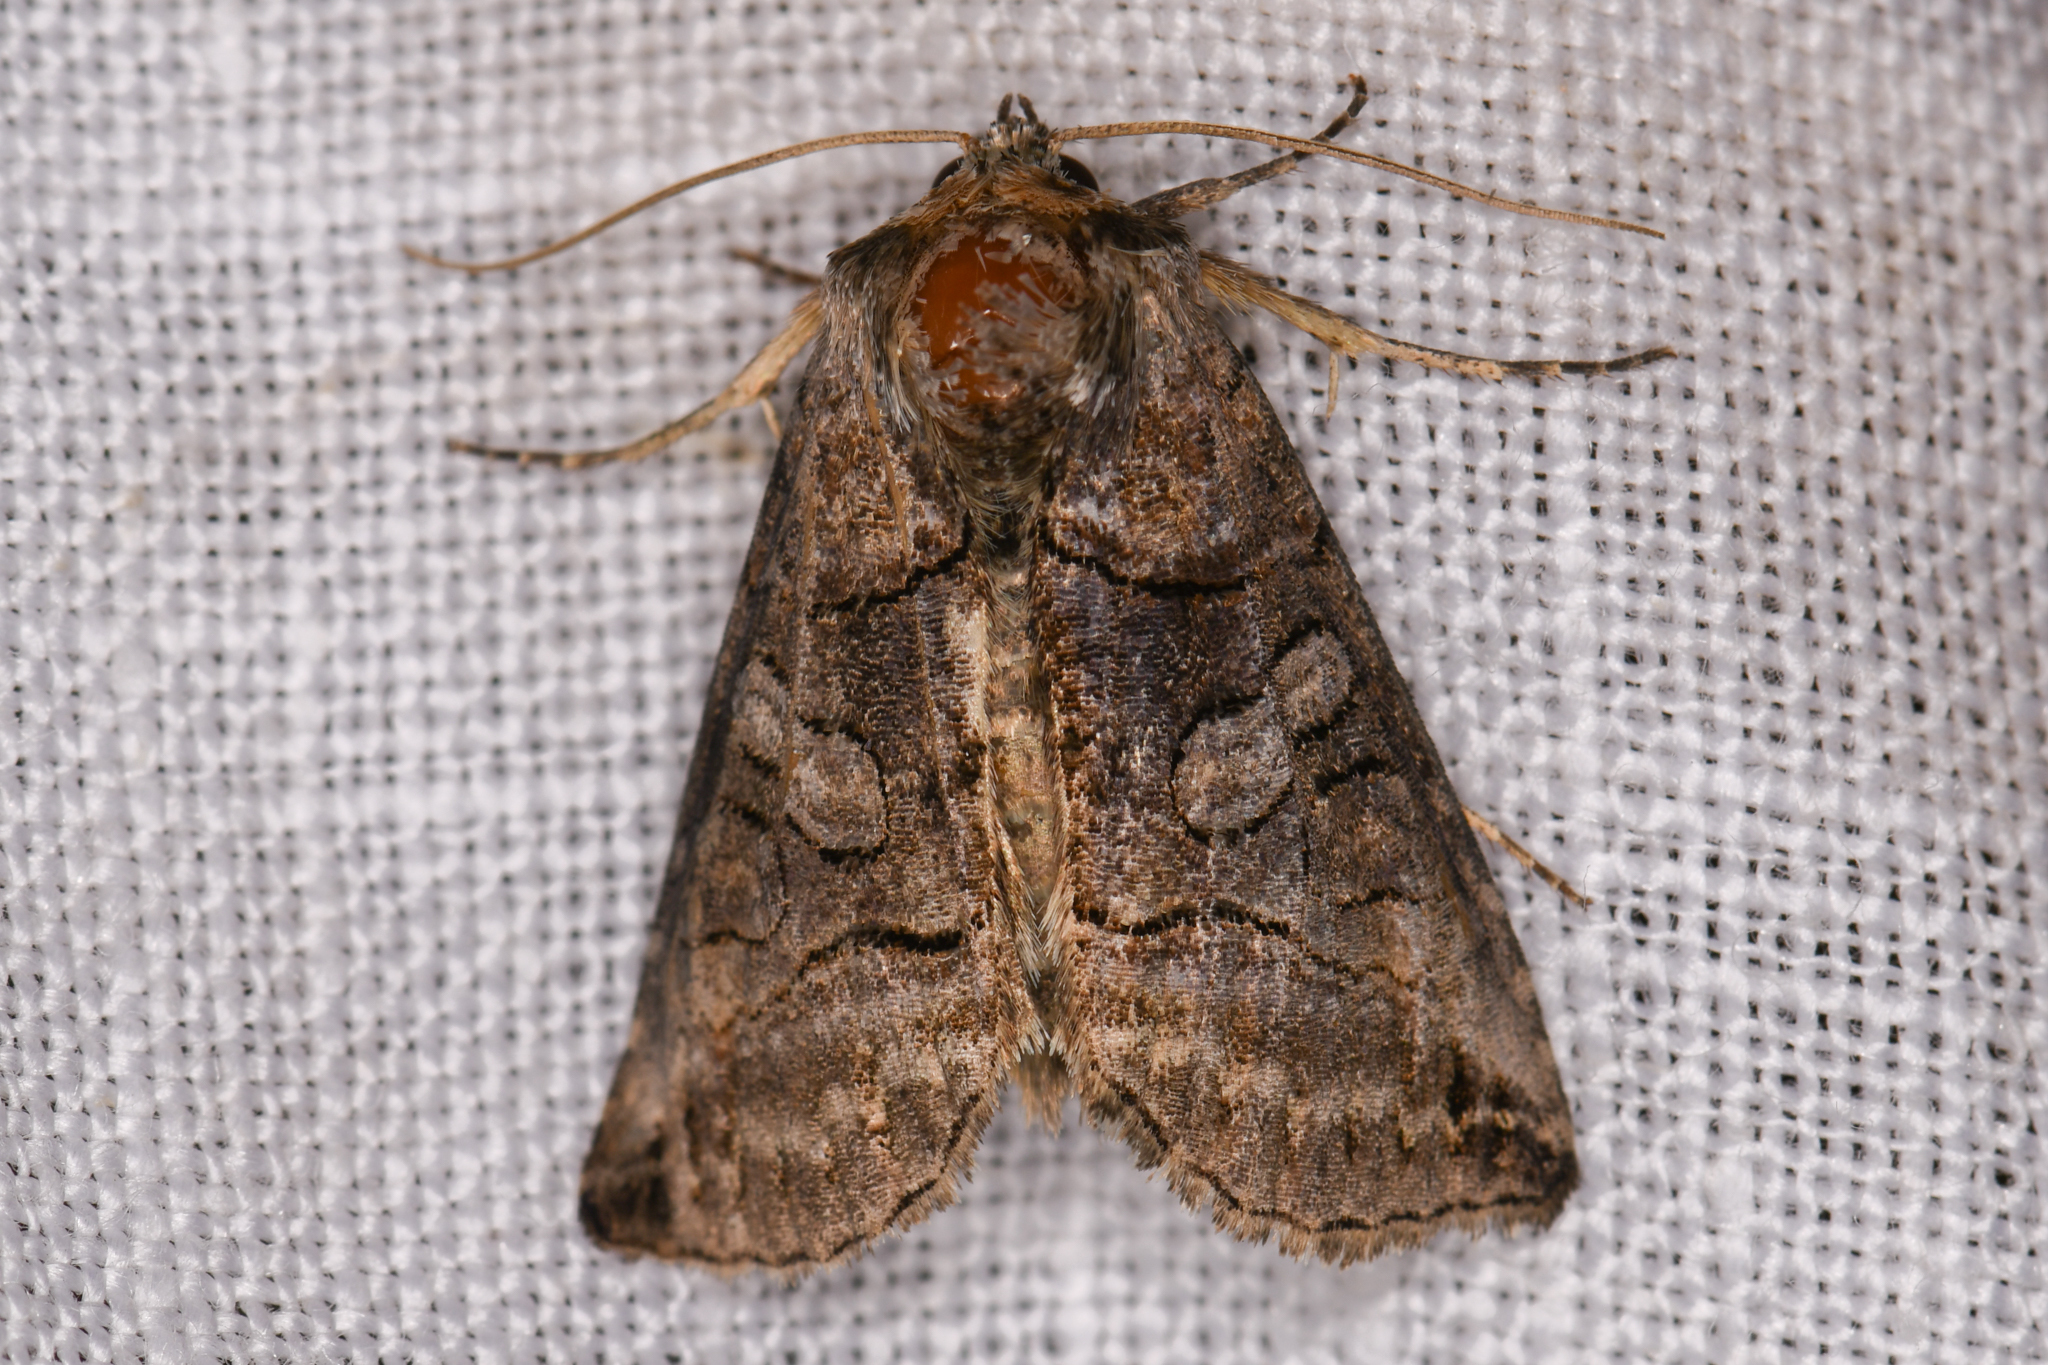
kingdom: Animalia
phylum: Arthropoda
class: Insecta
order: Lepidoptera
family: Noctuidae
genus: Abrostola
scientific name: Abrostola urentis
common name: Spectacled nettle moth
